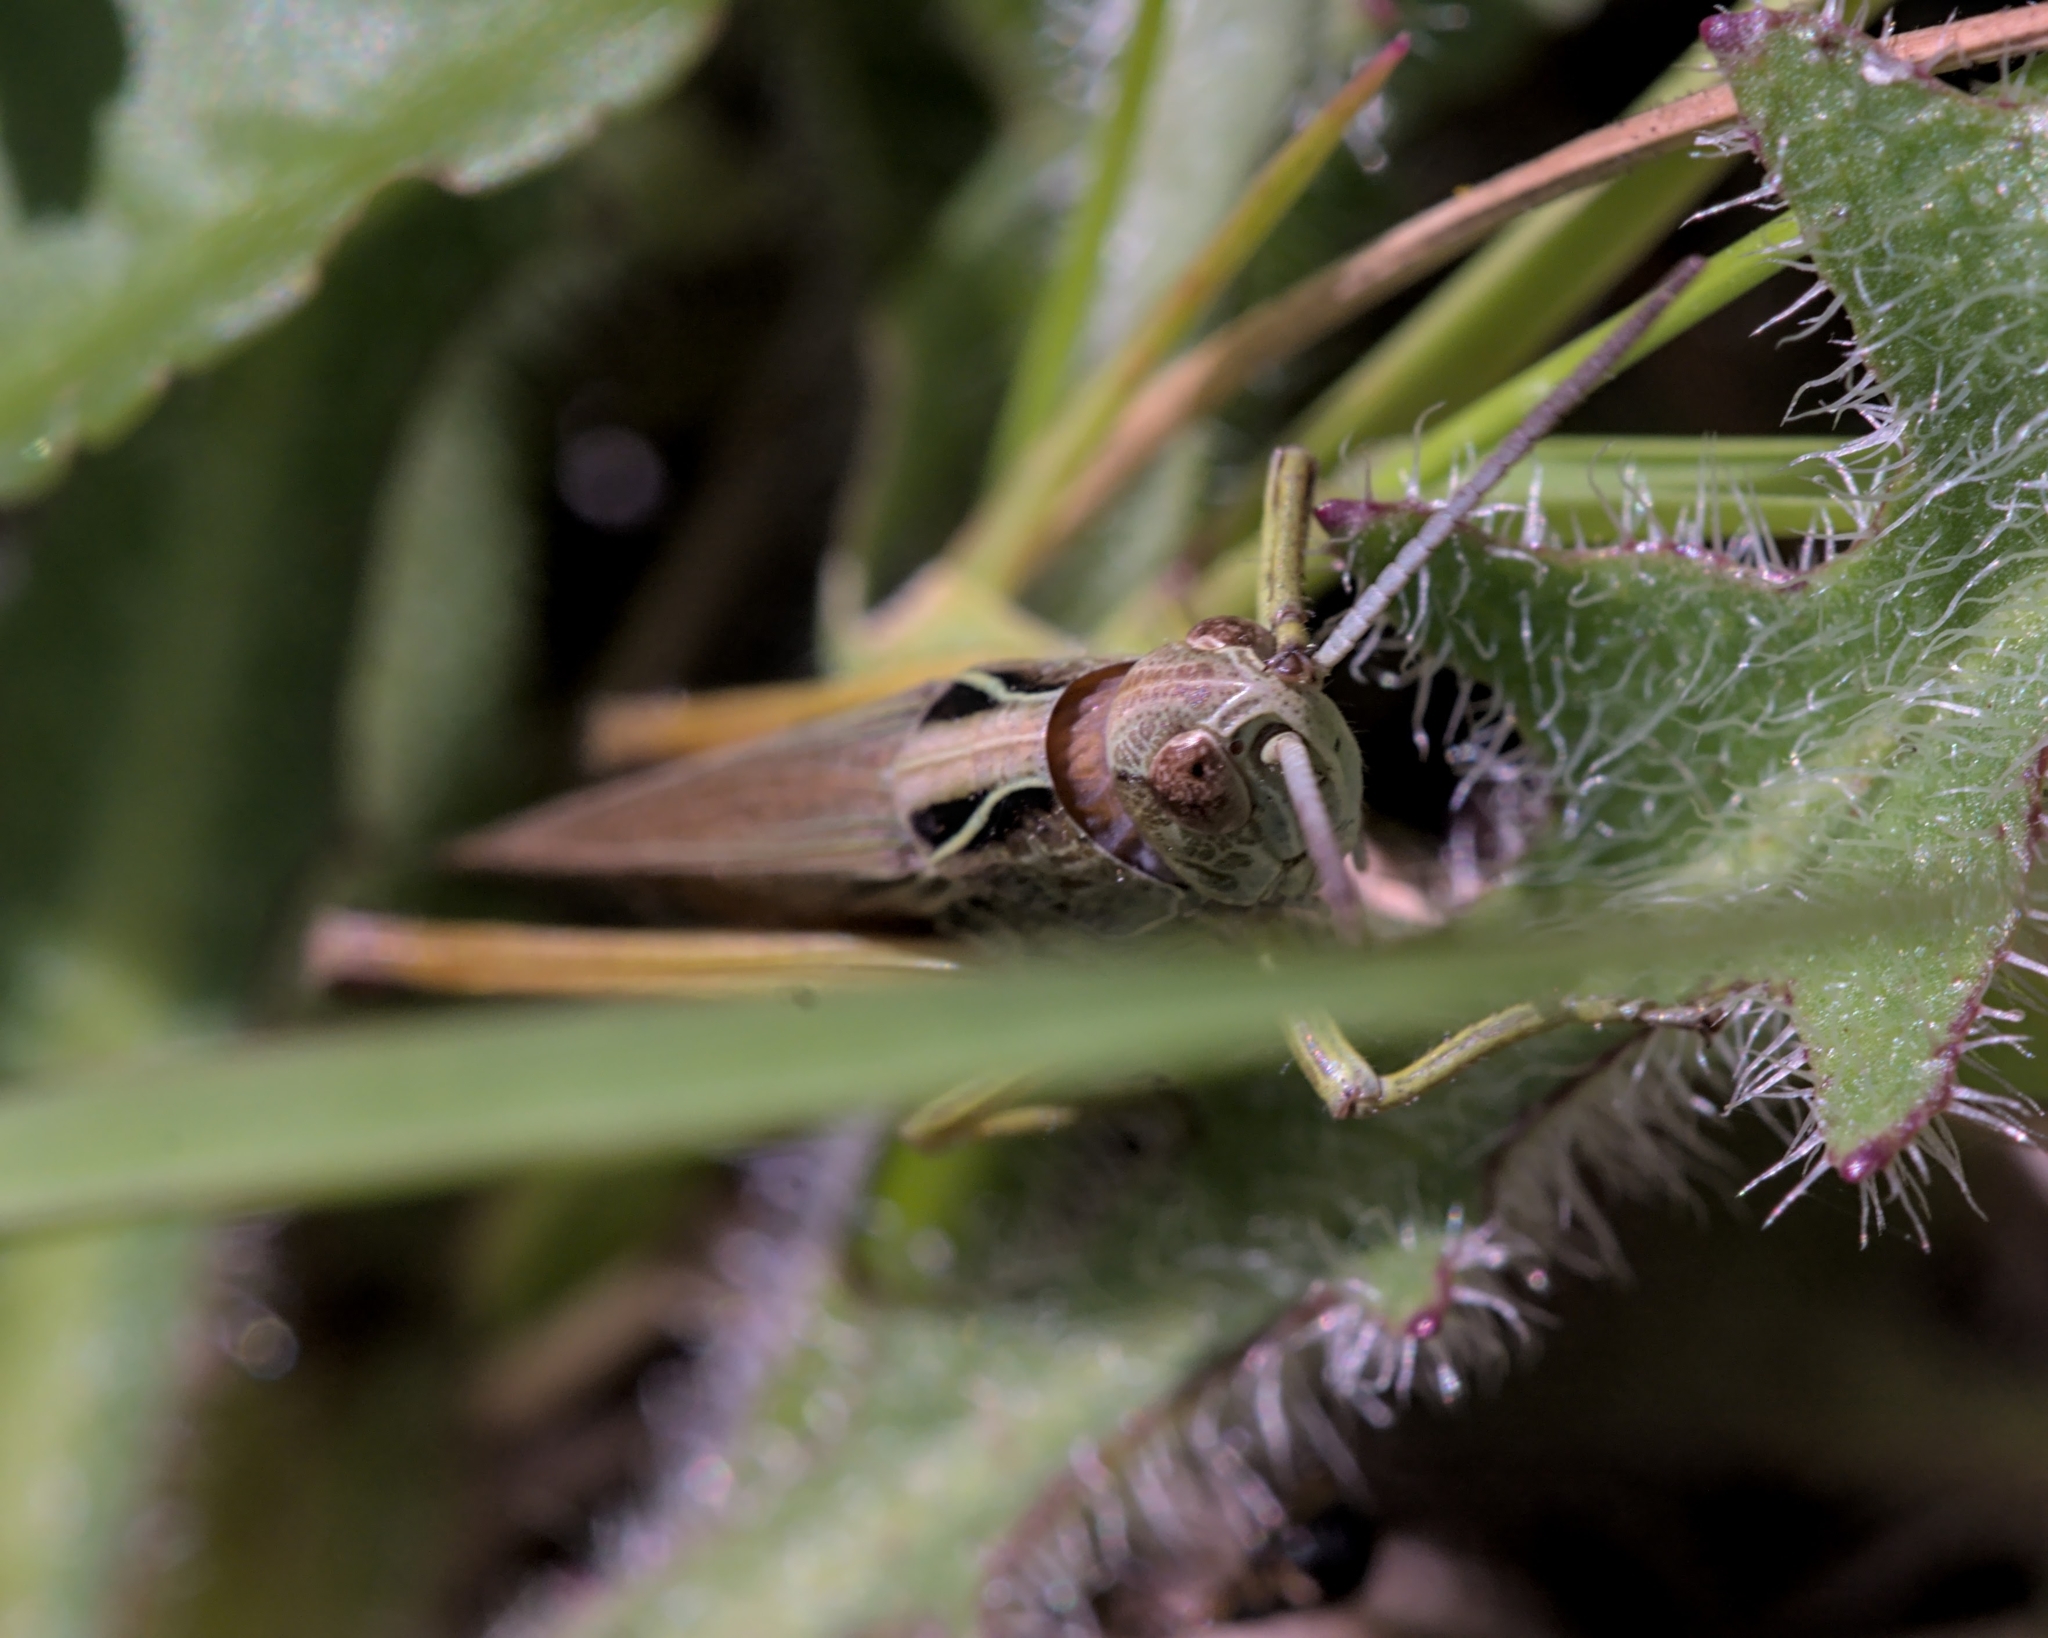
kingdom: Animalia
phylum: Arthropoda
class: Insecta
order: Orthoptera
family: Acrididae
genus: Omocestus
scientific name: Omocestus viridulus
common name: Common green grasshopper
